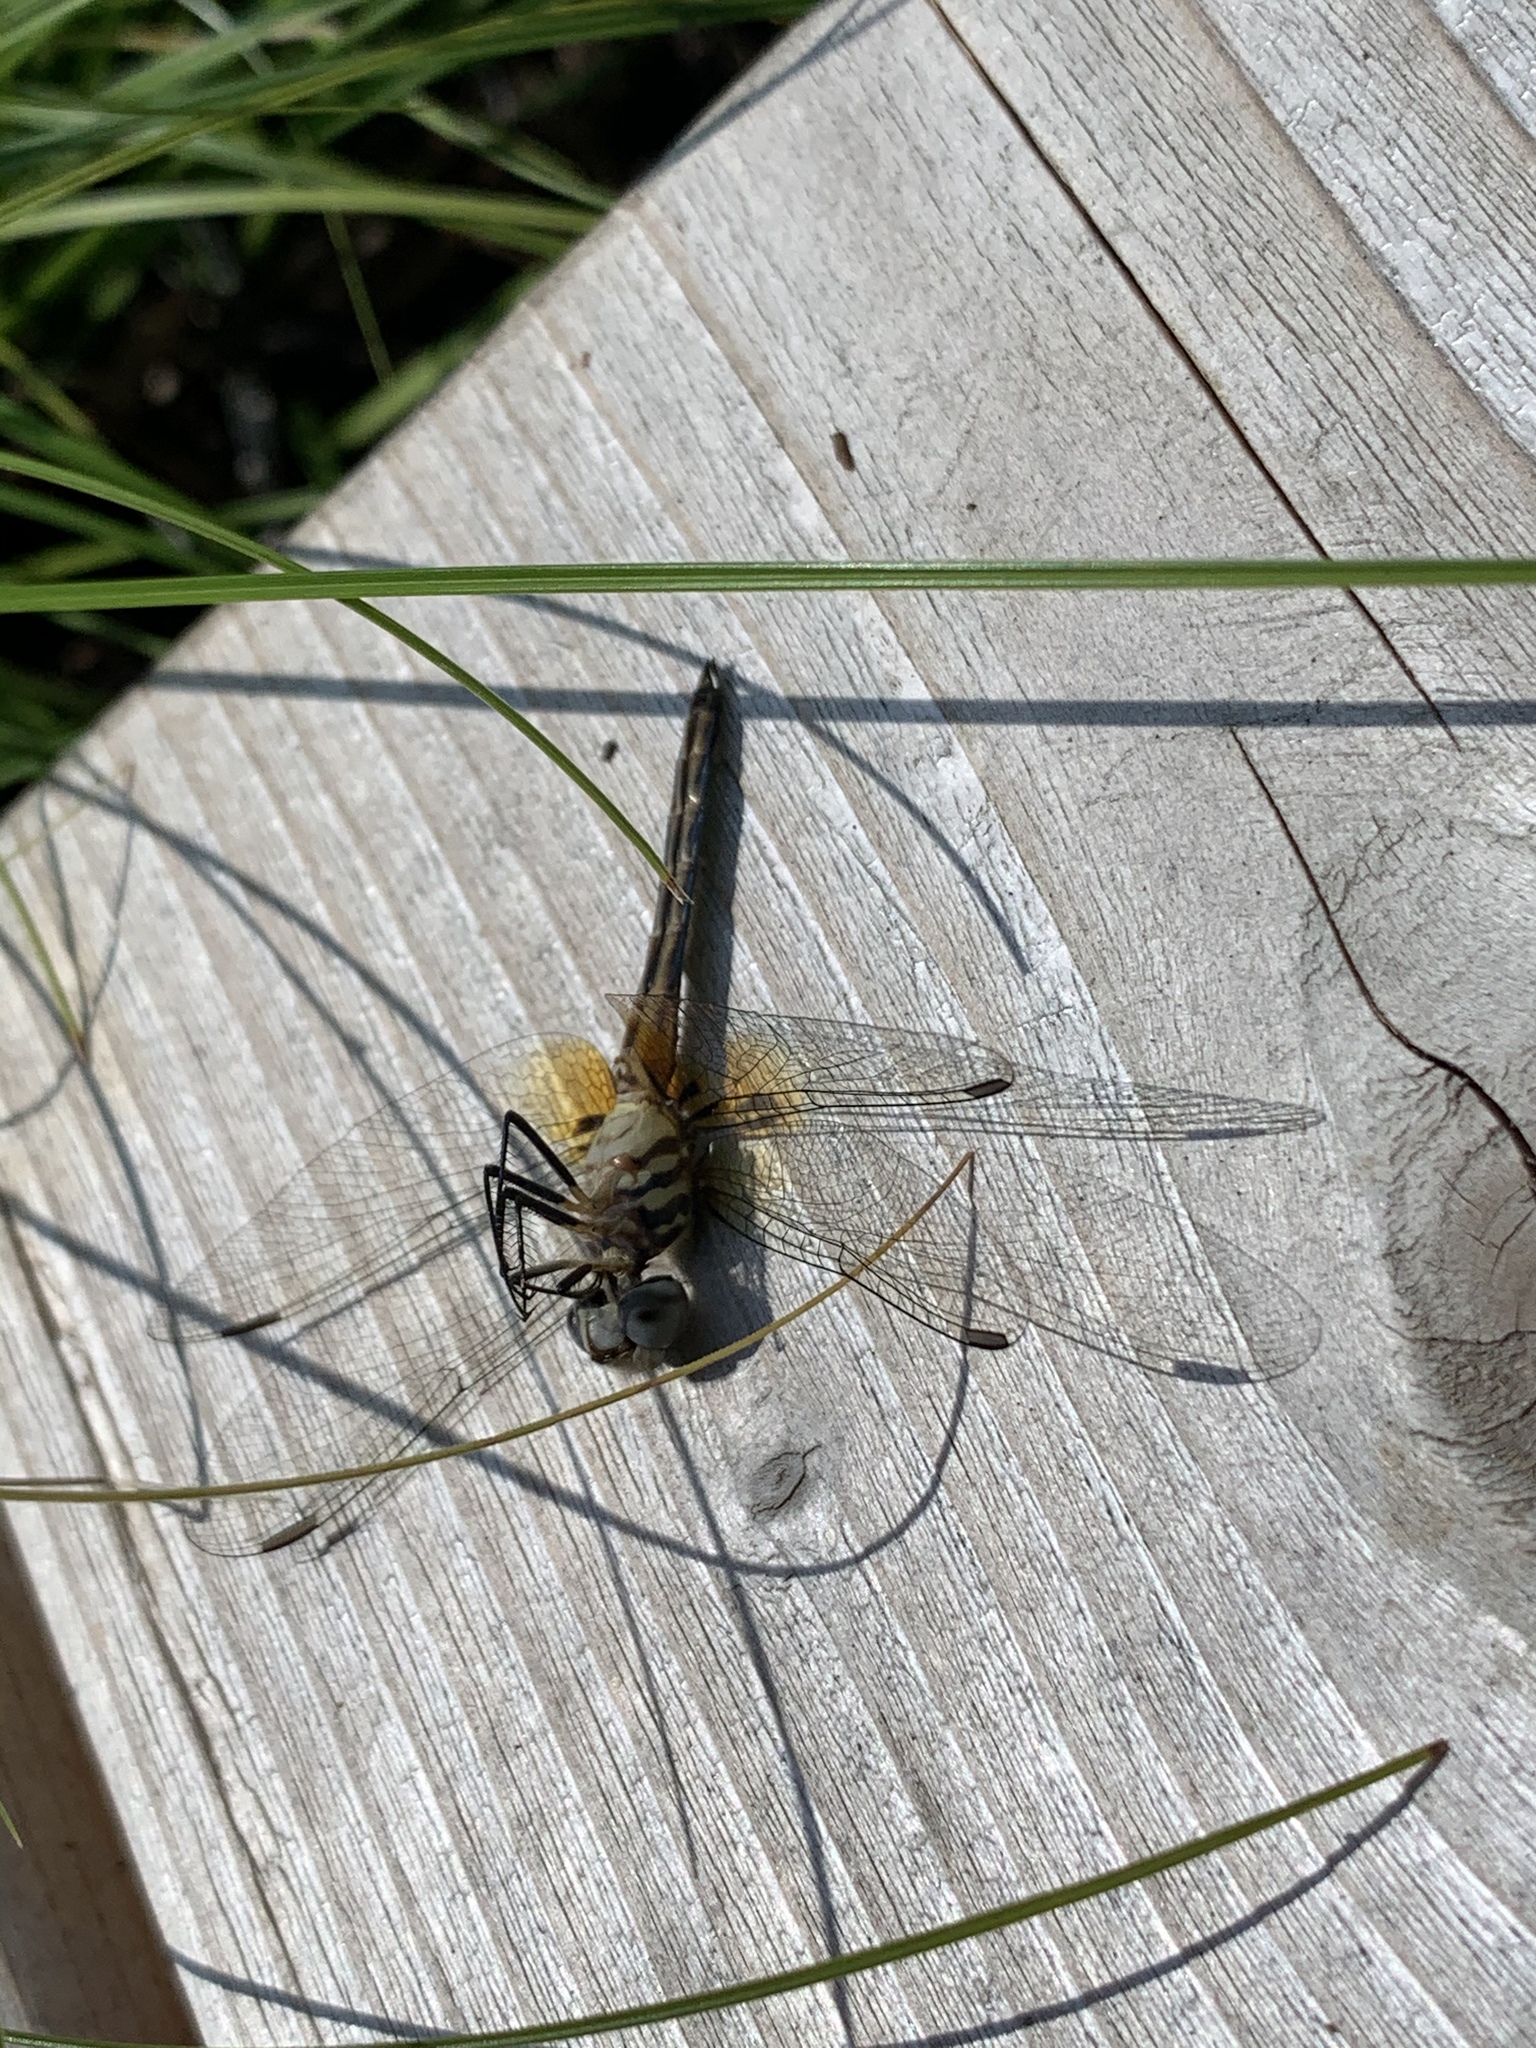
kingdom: Animalia
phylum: Arthropoda
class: Insecta
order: Odonata
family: Libellulidae
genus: Pachydiplax
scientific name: Pachydiplax longipennis
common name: Blue dasher
